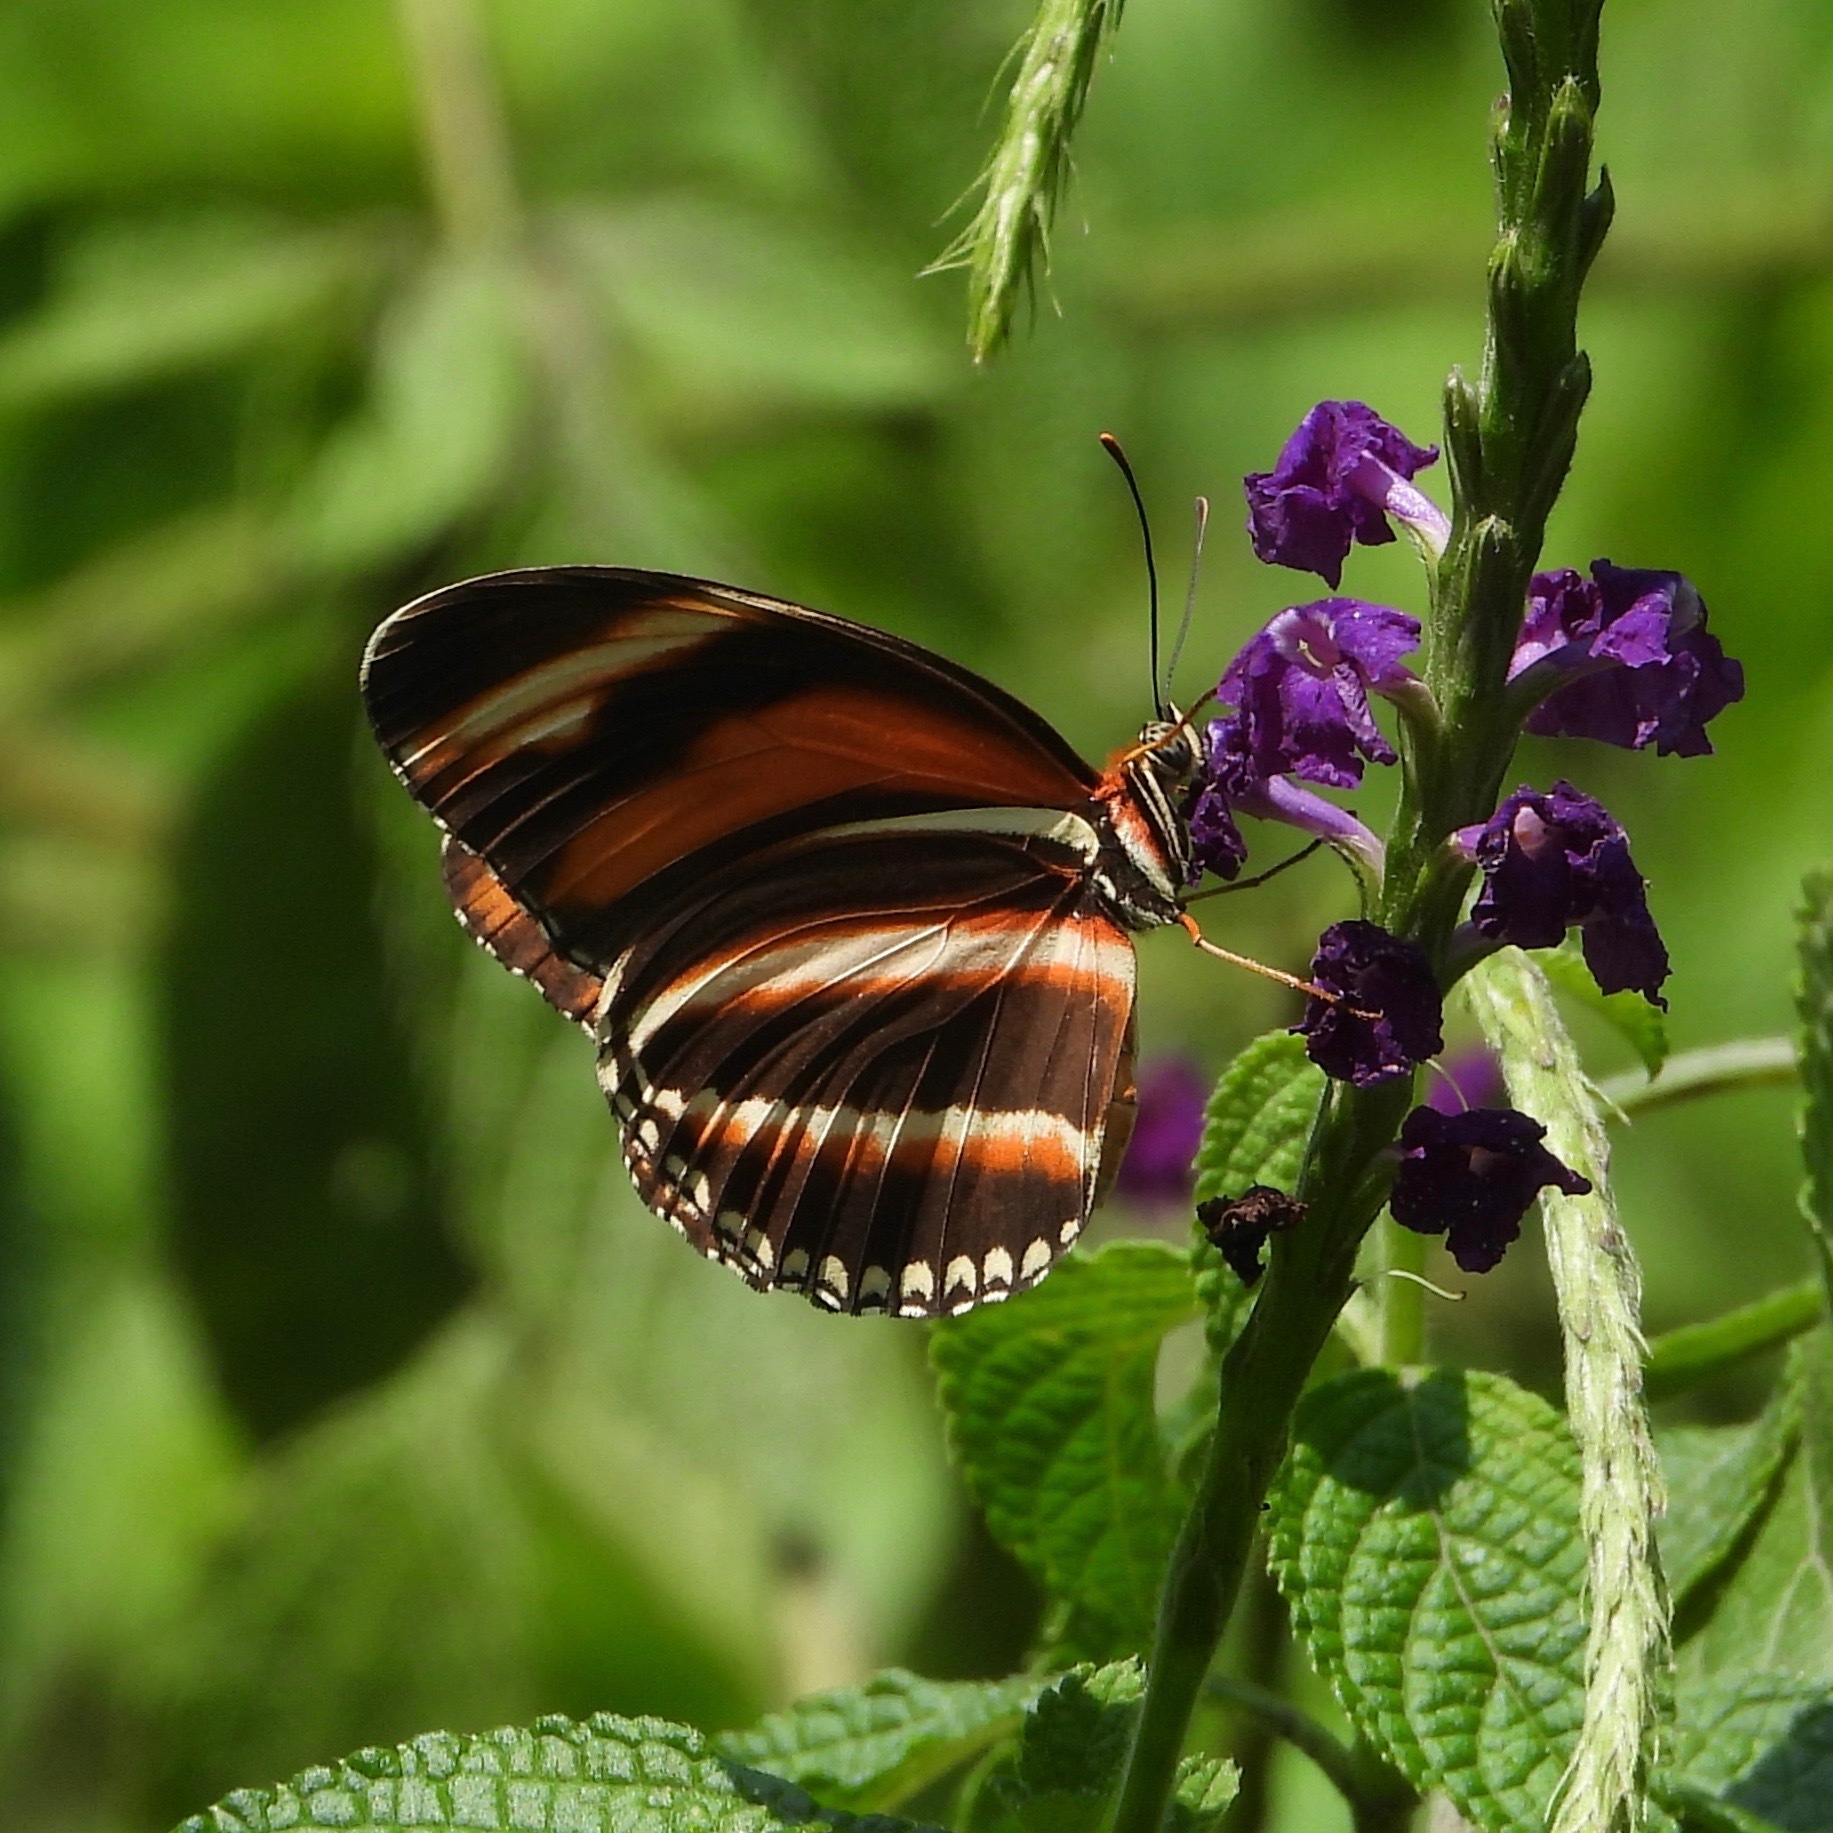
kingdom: Animalia
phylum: Arthropoda
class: Insecta
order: Lepidoptera
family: Nymphalidae
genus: Dryadula
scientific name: Dryadula phaetusa
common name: Banded orange heliconian
